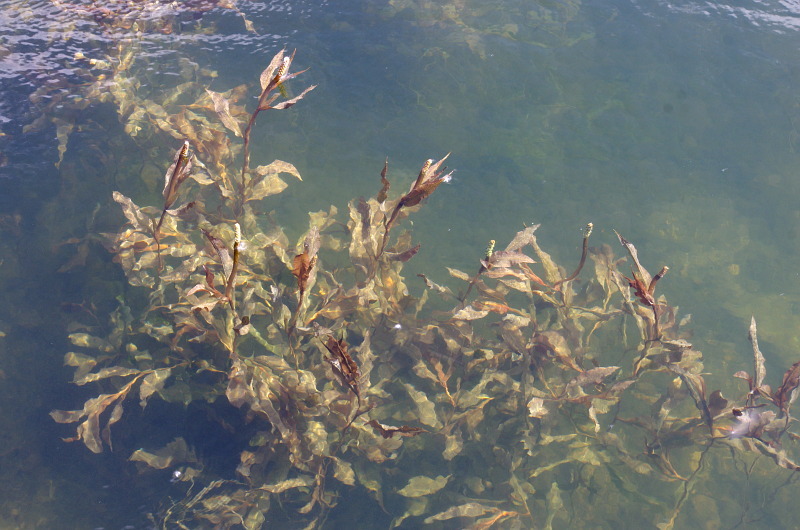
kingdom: Plantae
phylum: Tracheophyta
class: Liliopsida
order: Alismatales
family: Potamogetonaceae
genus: Potamogeton
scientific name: Potamogeton lucens
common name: Shining pondweed
